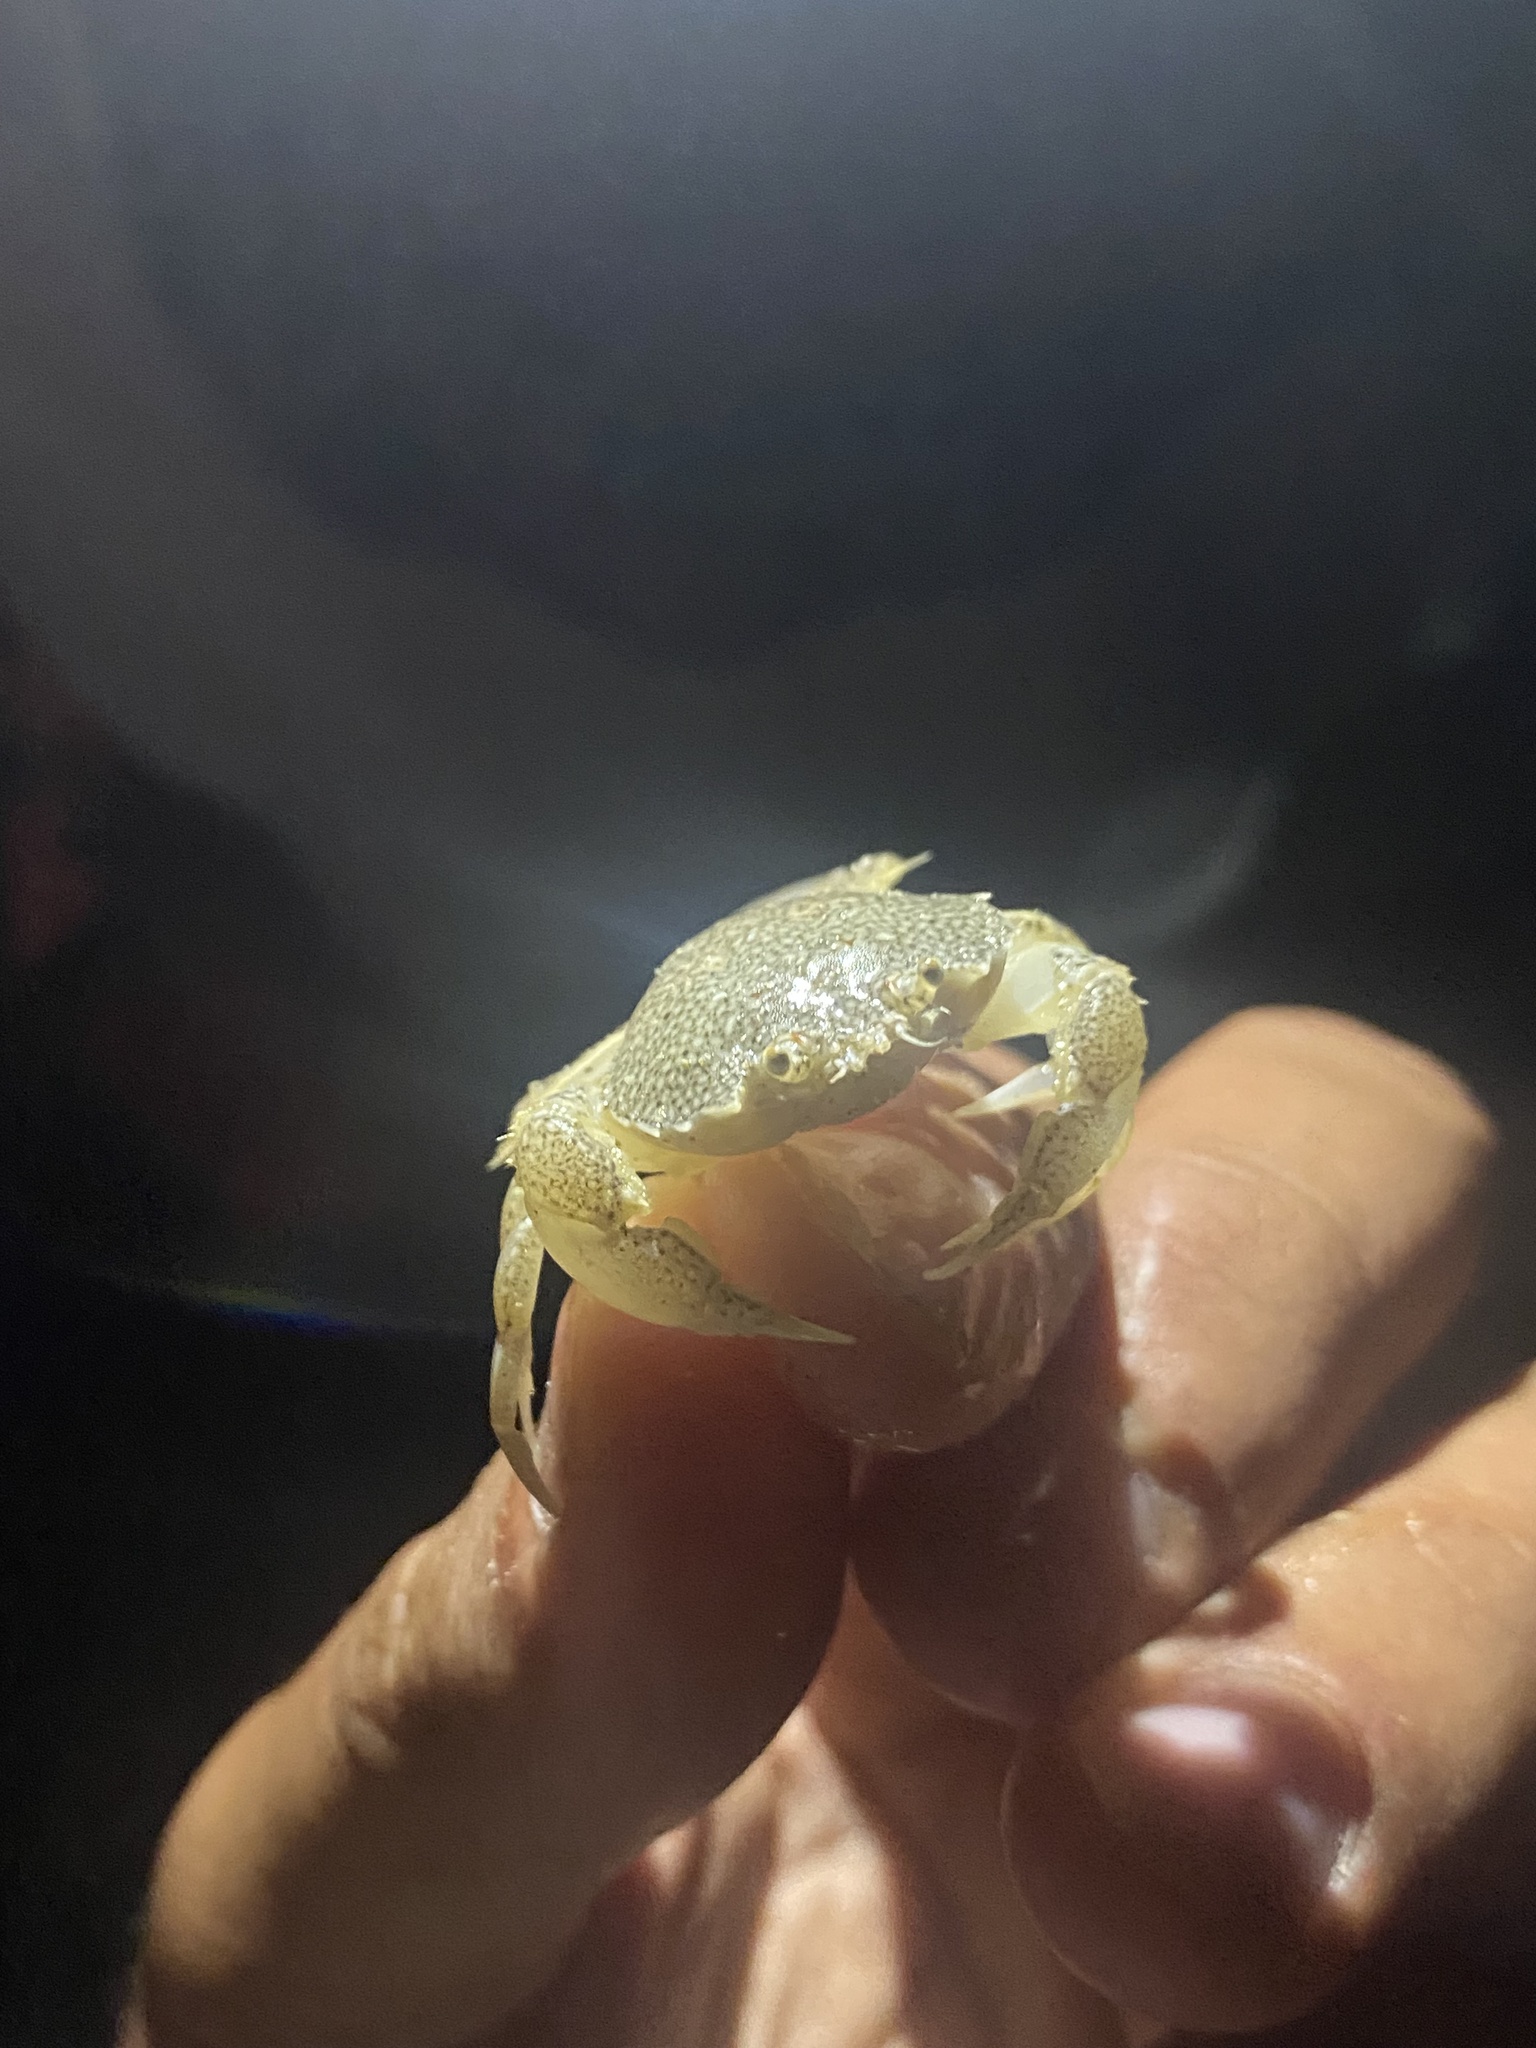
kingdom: Animalia
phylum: Arthropoda
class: Malacostraca
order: Decapoda
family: Carcinidae
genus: Portumnus
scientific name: Portumnus latipes
